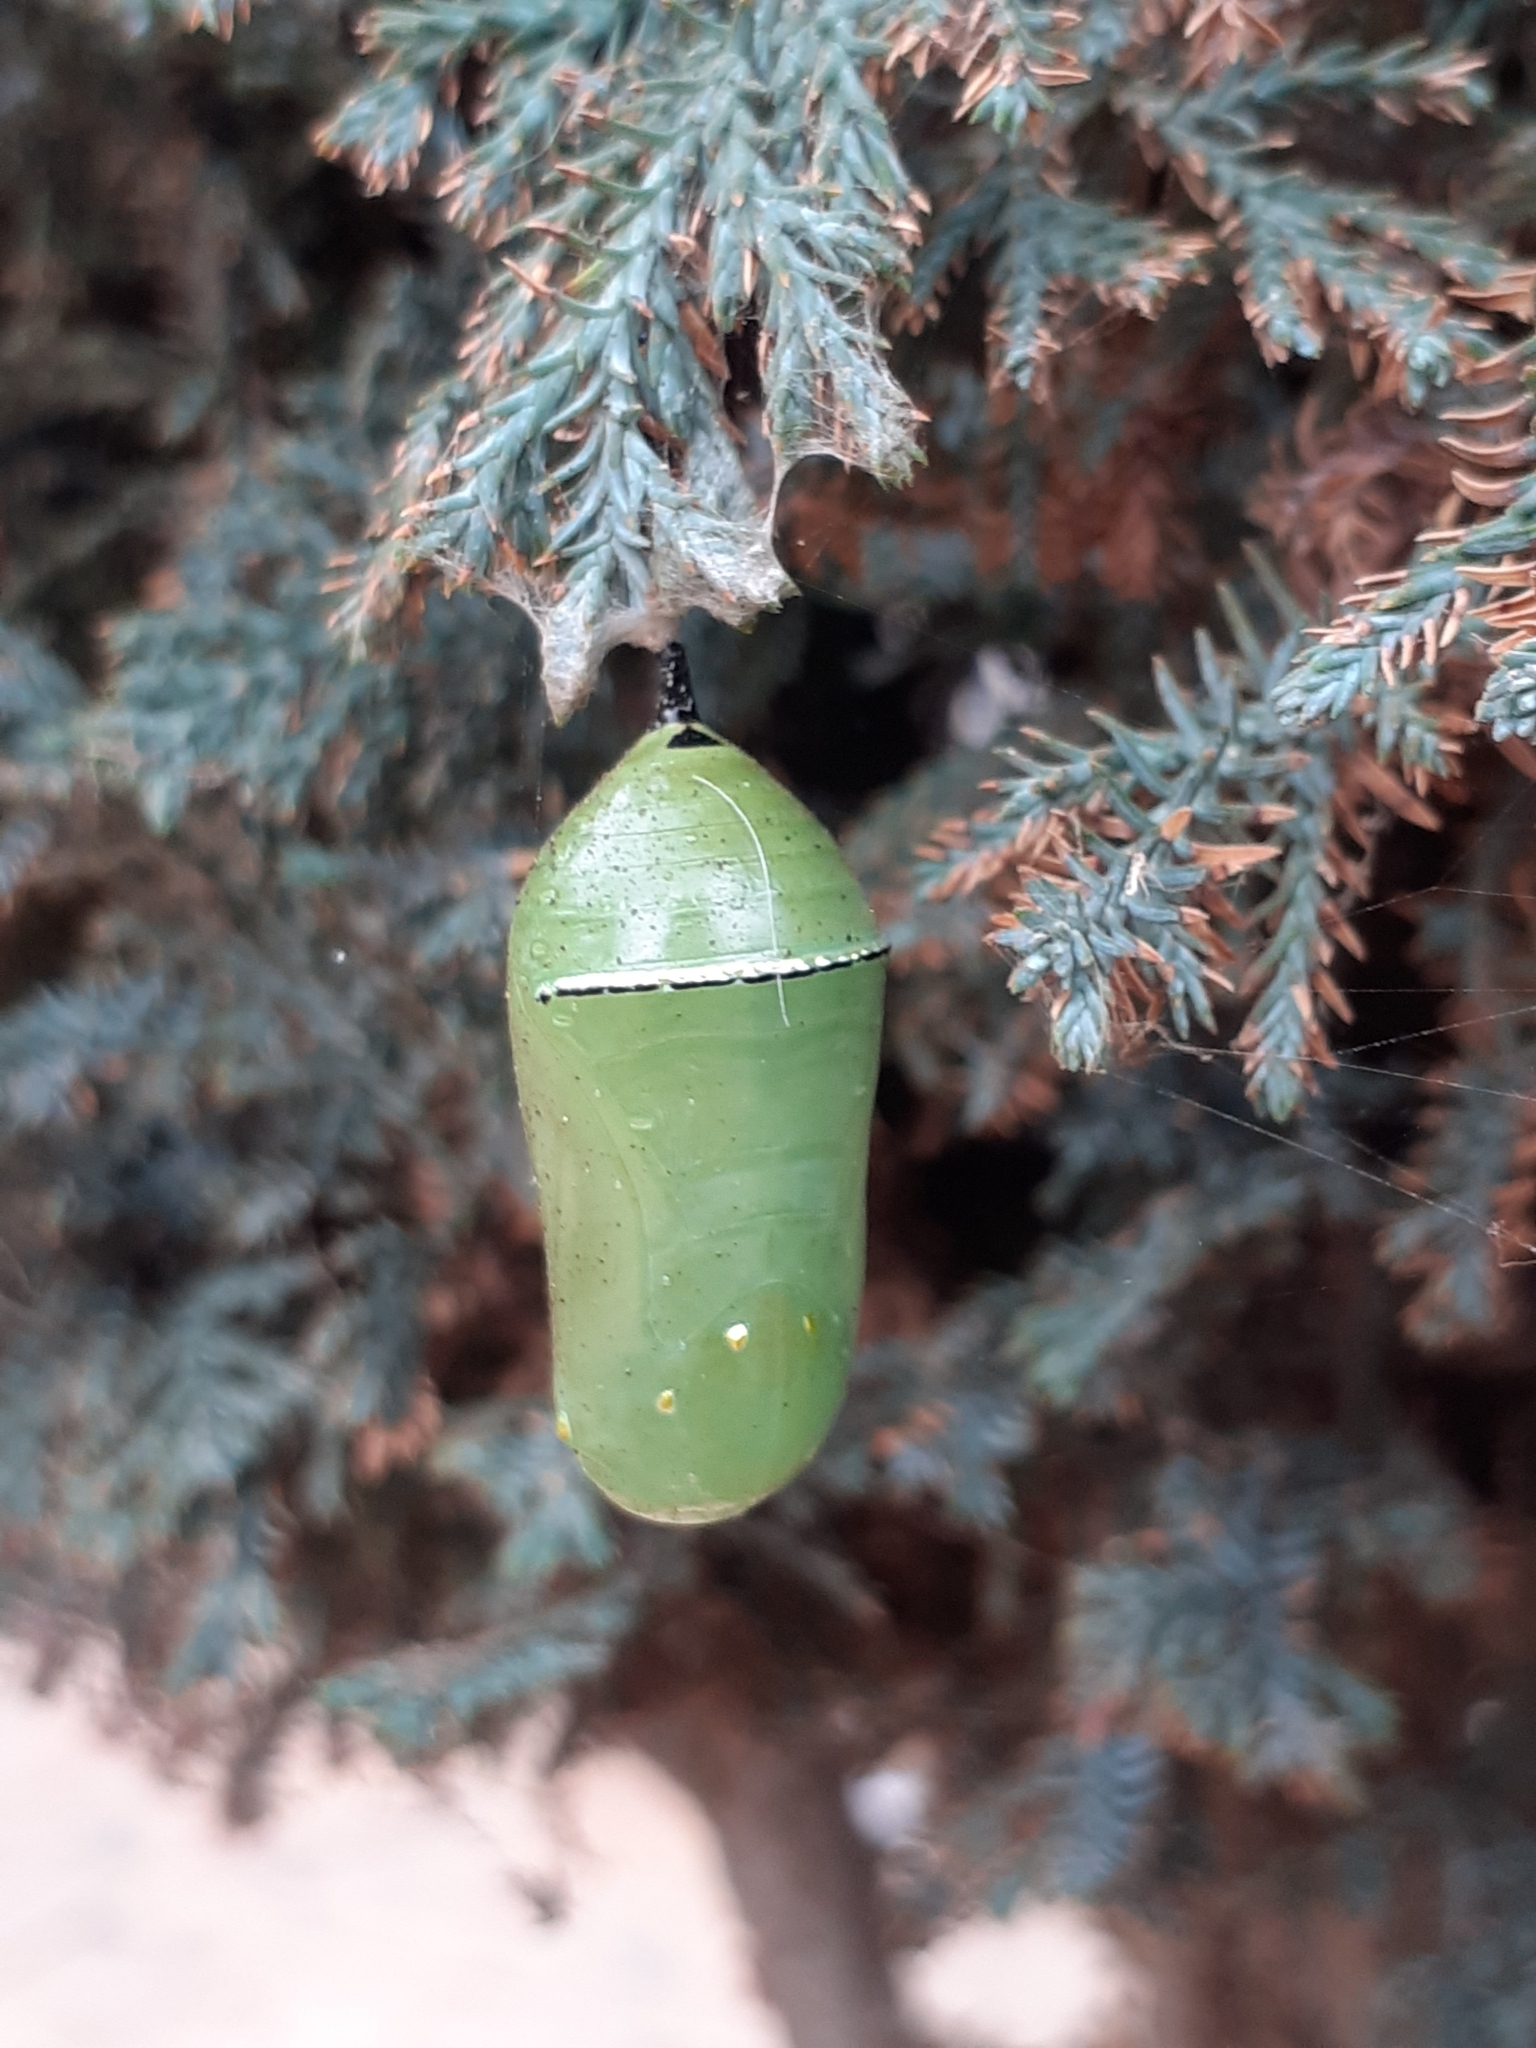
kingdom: Animalia
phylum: Arthropoda
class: Insecta
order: Lepidoptera
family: Nymphalidae
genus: Danaus
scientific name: Danaus plexippus
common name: Monarch
